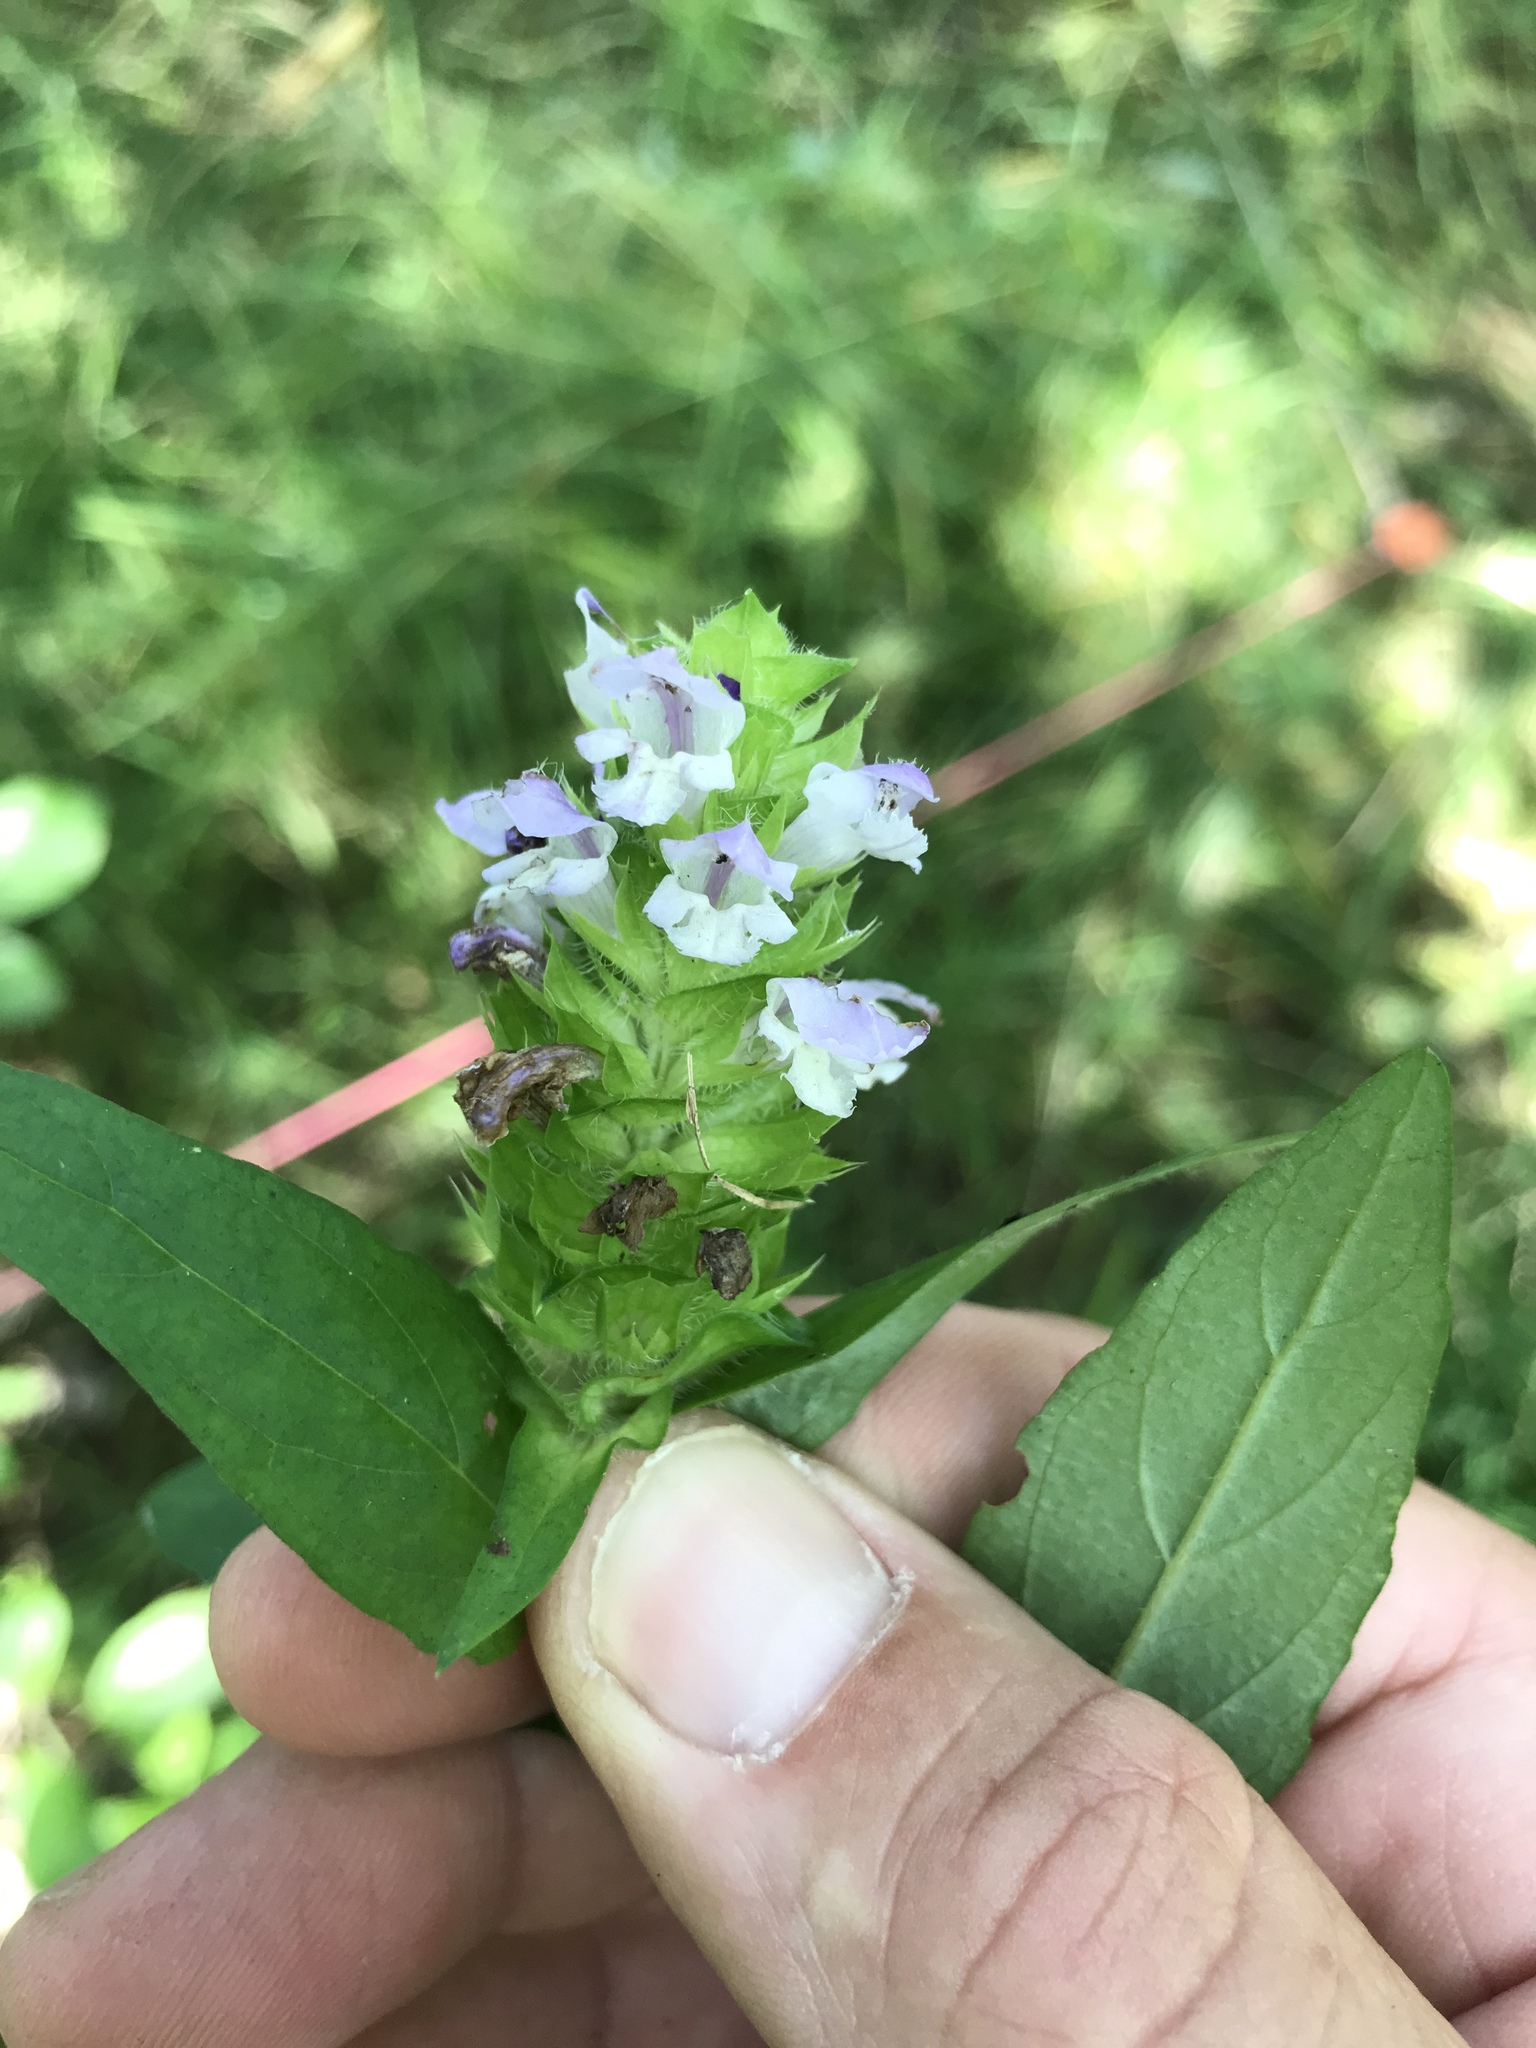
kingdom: Plantae
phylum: Tracheophyta
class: Magnoliopsida
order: Lamiales
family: Lamiaceae
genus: Prunella
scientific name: Prunella vulgaris
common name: Heal-all
